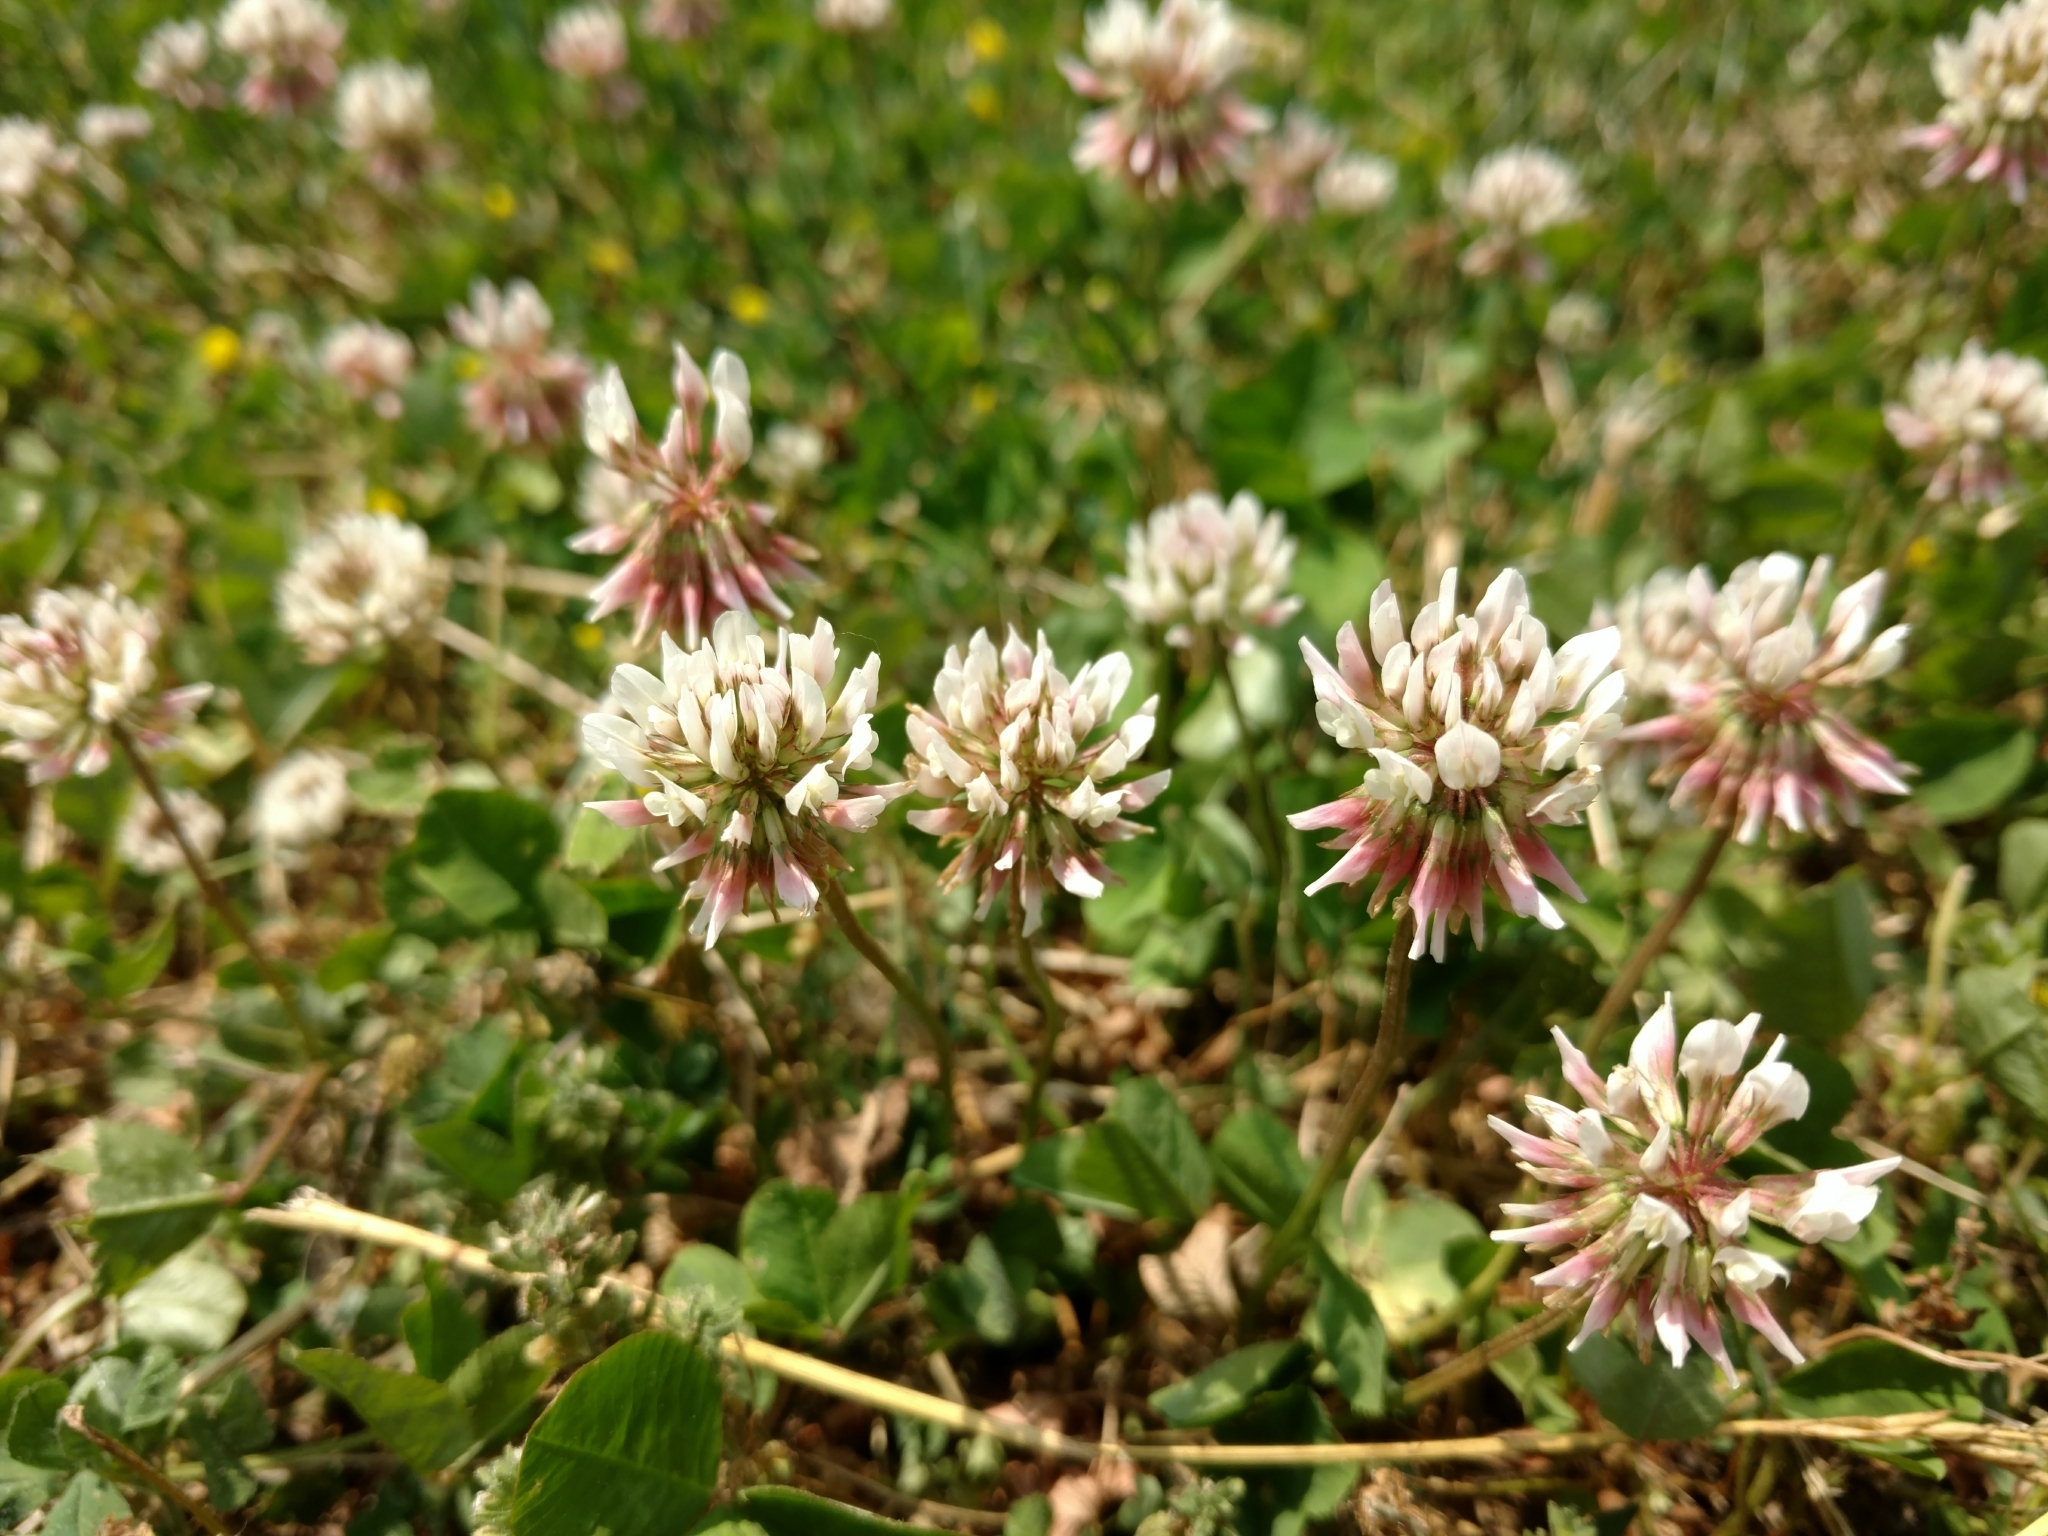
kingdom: Plantae
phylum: Tracheophyta
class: Magnoliopsida
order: Fabales
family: Fabaceae
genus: Trifolium
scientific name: Trifolium repens
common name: White clover
